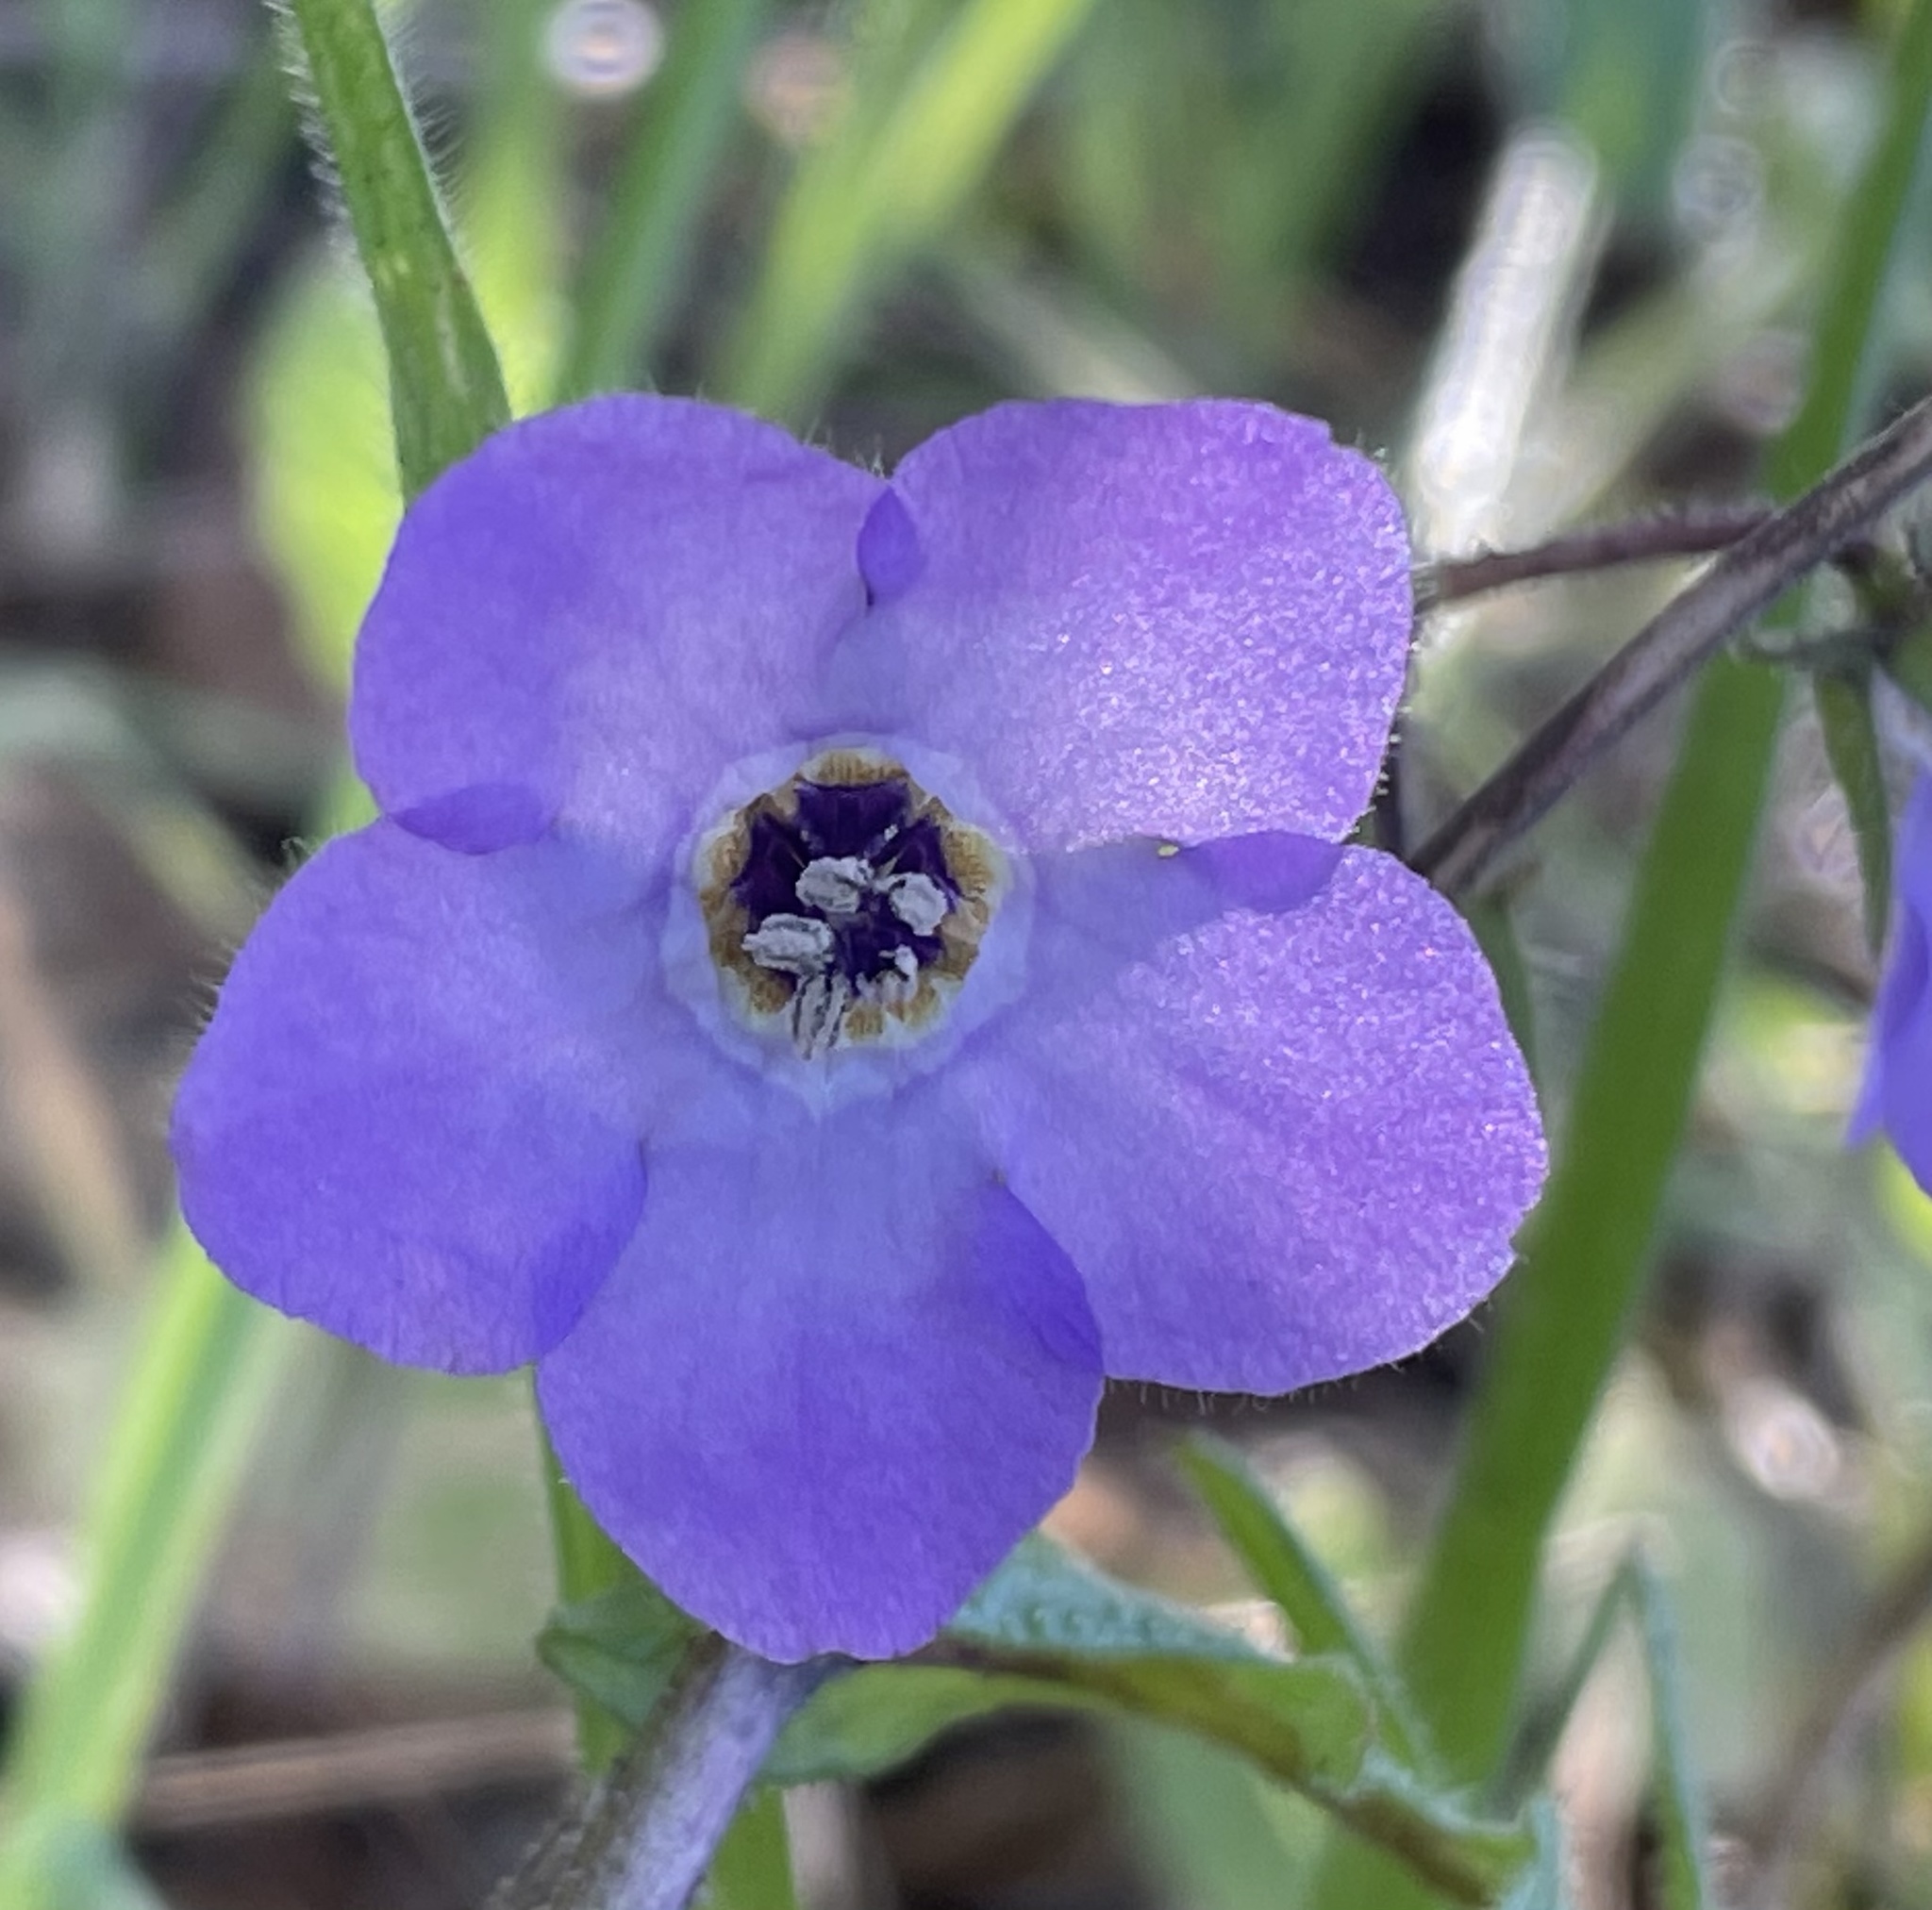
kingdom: Plantae
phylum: Tracheophyta
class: Magnoliopsida
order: Boraginales
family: Hydrophyllaceae
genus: Pholistoma
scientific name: Pholistoma auritum
